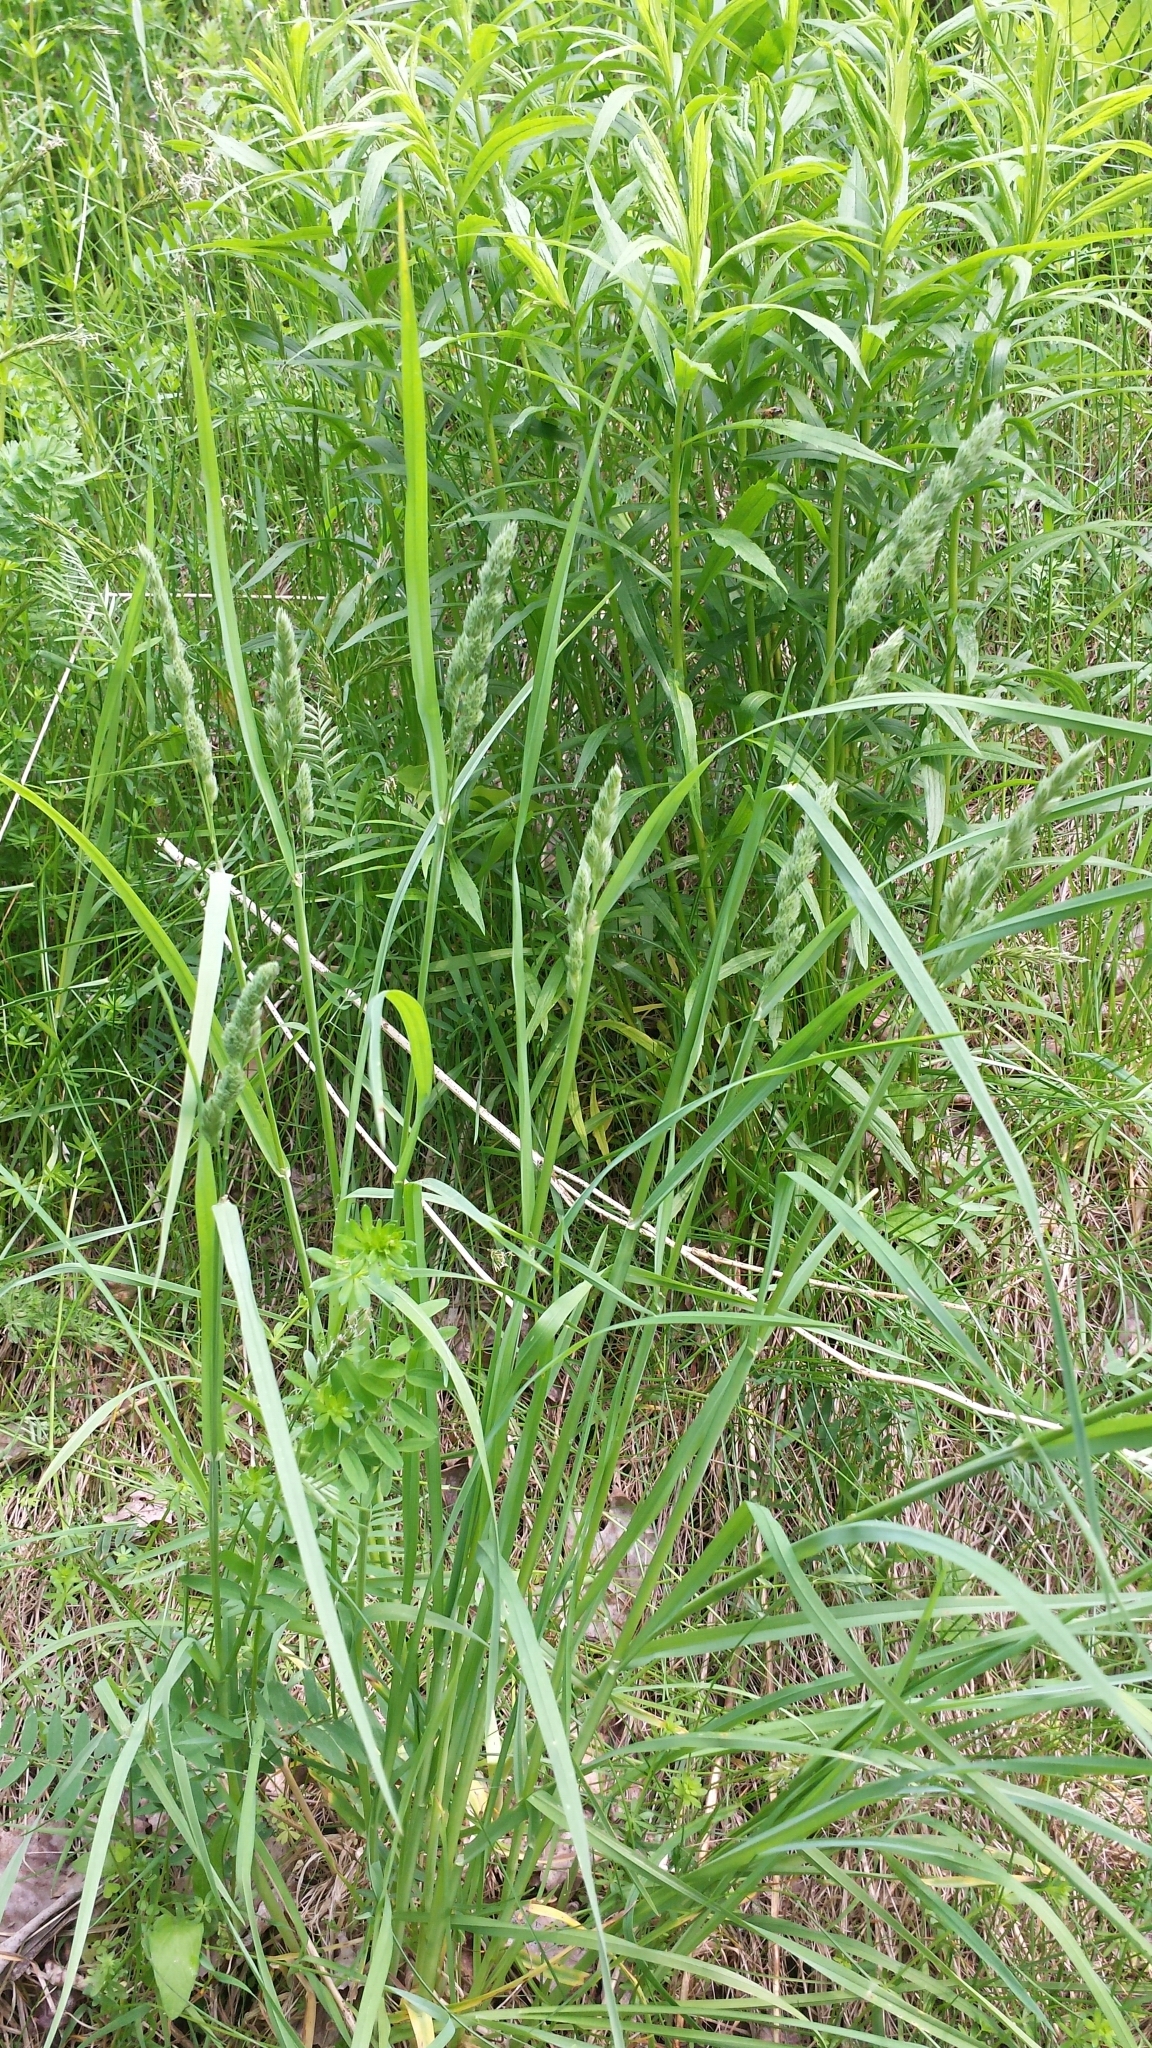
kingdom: Plantae
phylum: Tracheophyta
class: Liliopsida
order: Poales
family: Poaceae
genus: Dactylis
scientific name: Dactylis glomerata
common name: Orchardgrass
